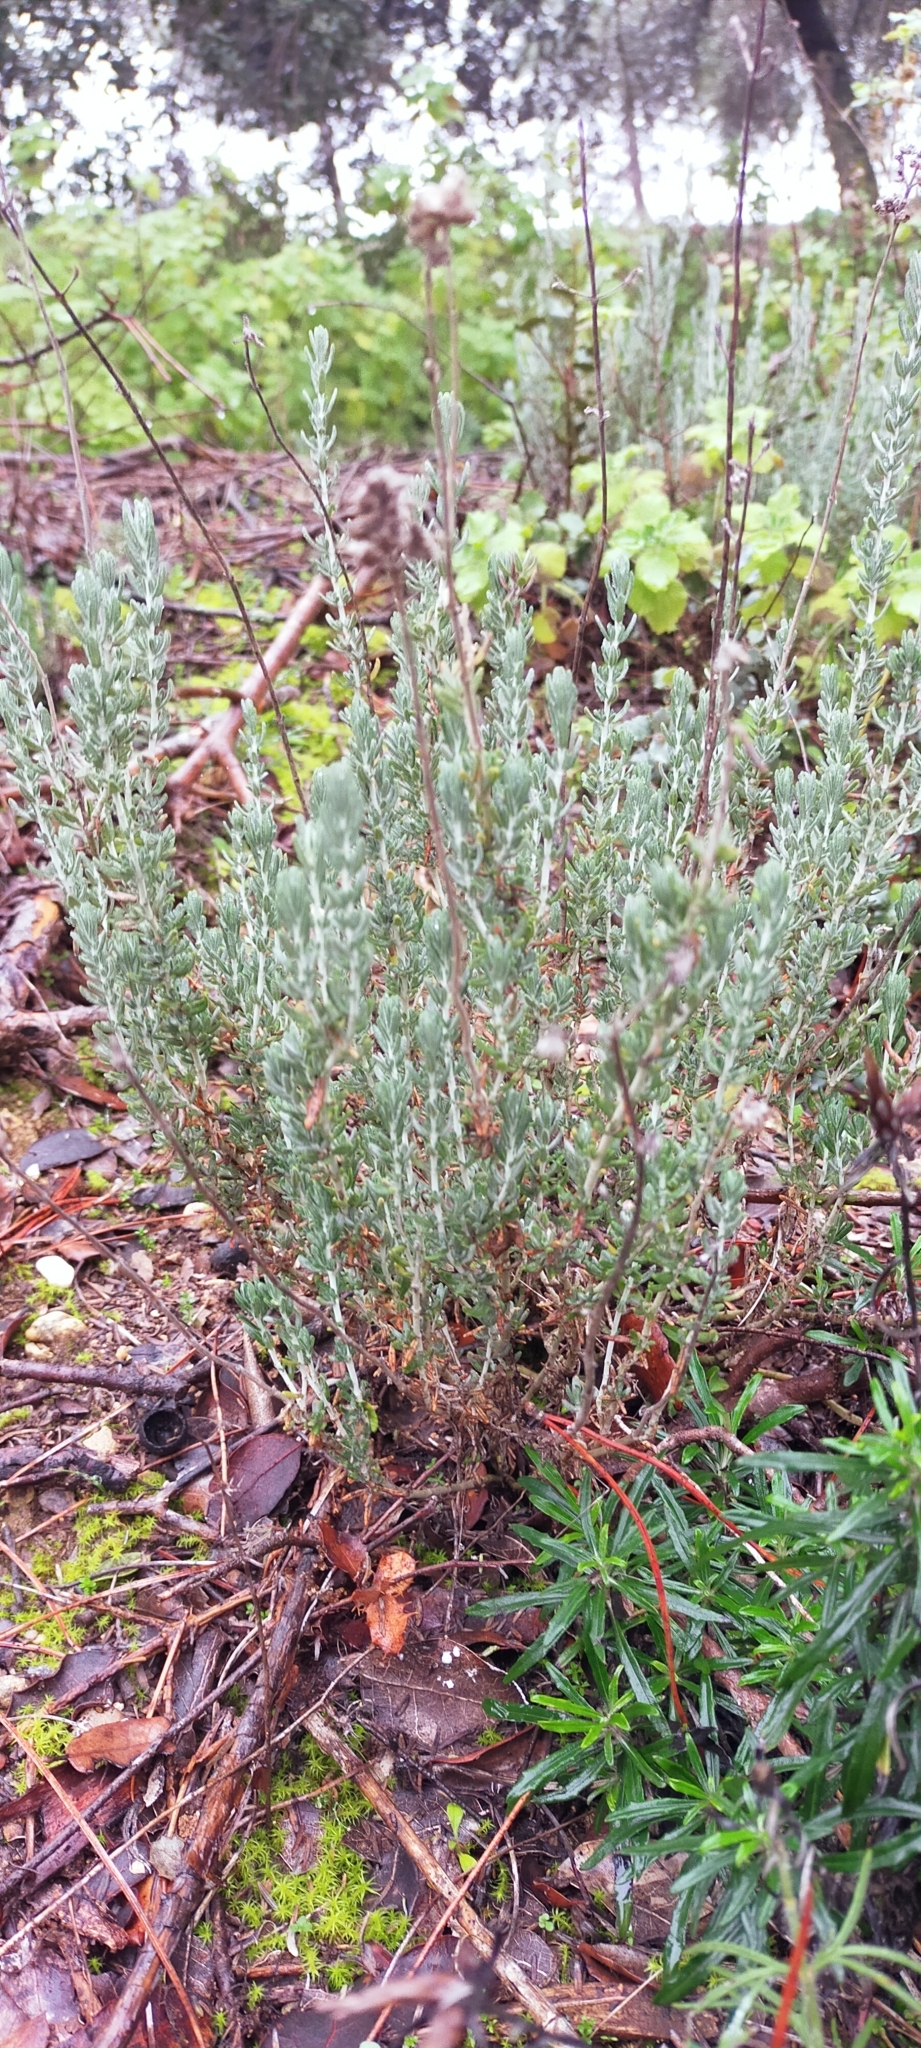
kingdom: Plantae
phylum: Tracheophyta
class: Magnoliopsida
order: Lamiales
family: Lamiaceae
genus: Teucrium
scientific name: Teucrium capitatum
